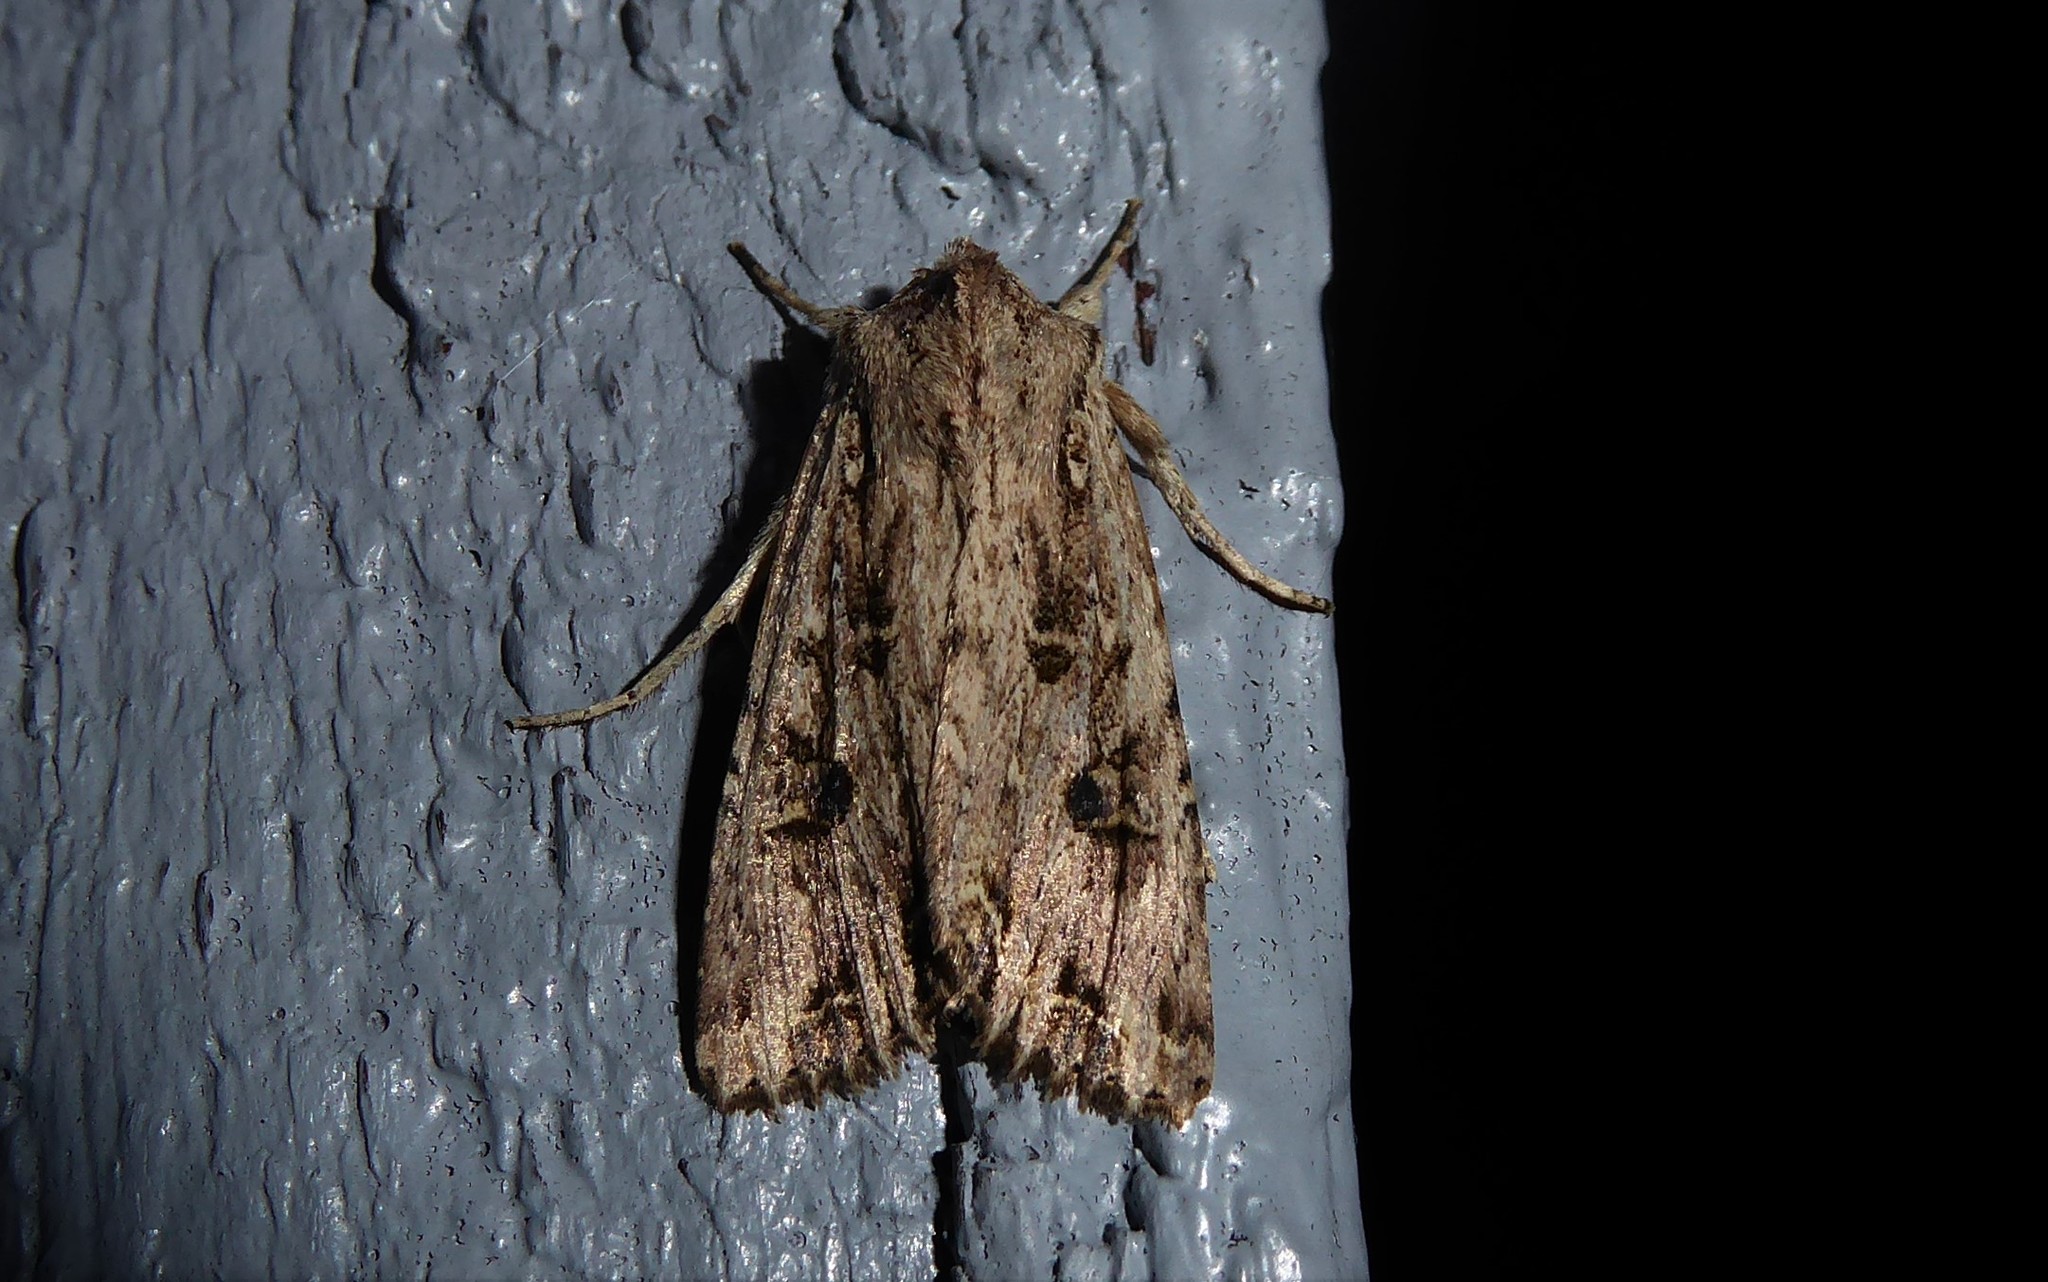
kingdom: Animalia
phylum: Arthropoda
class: Insecta
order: Lepidoptera
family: Noctuidae
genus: Ichneutica
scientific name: Ichneutica lignana
